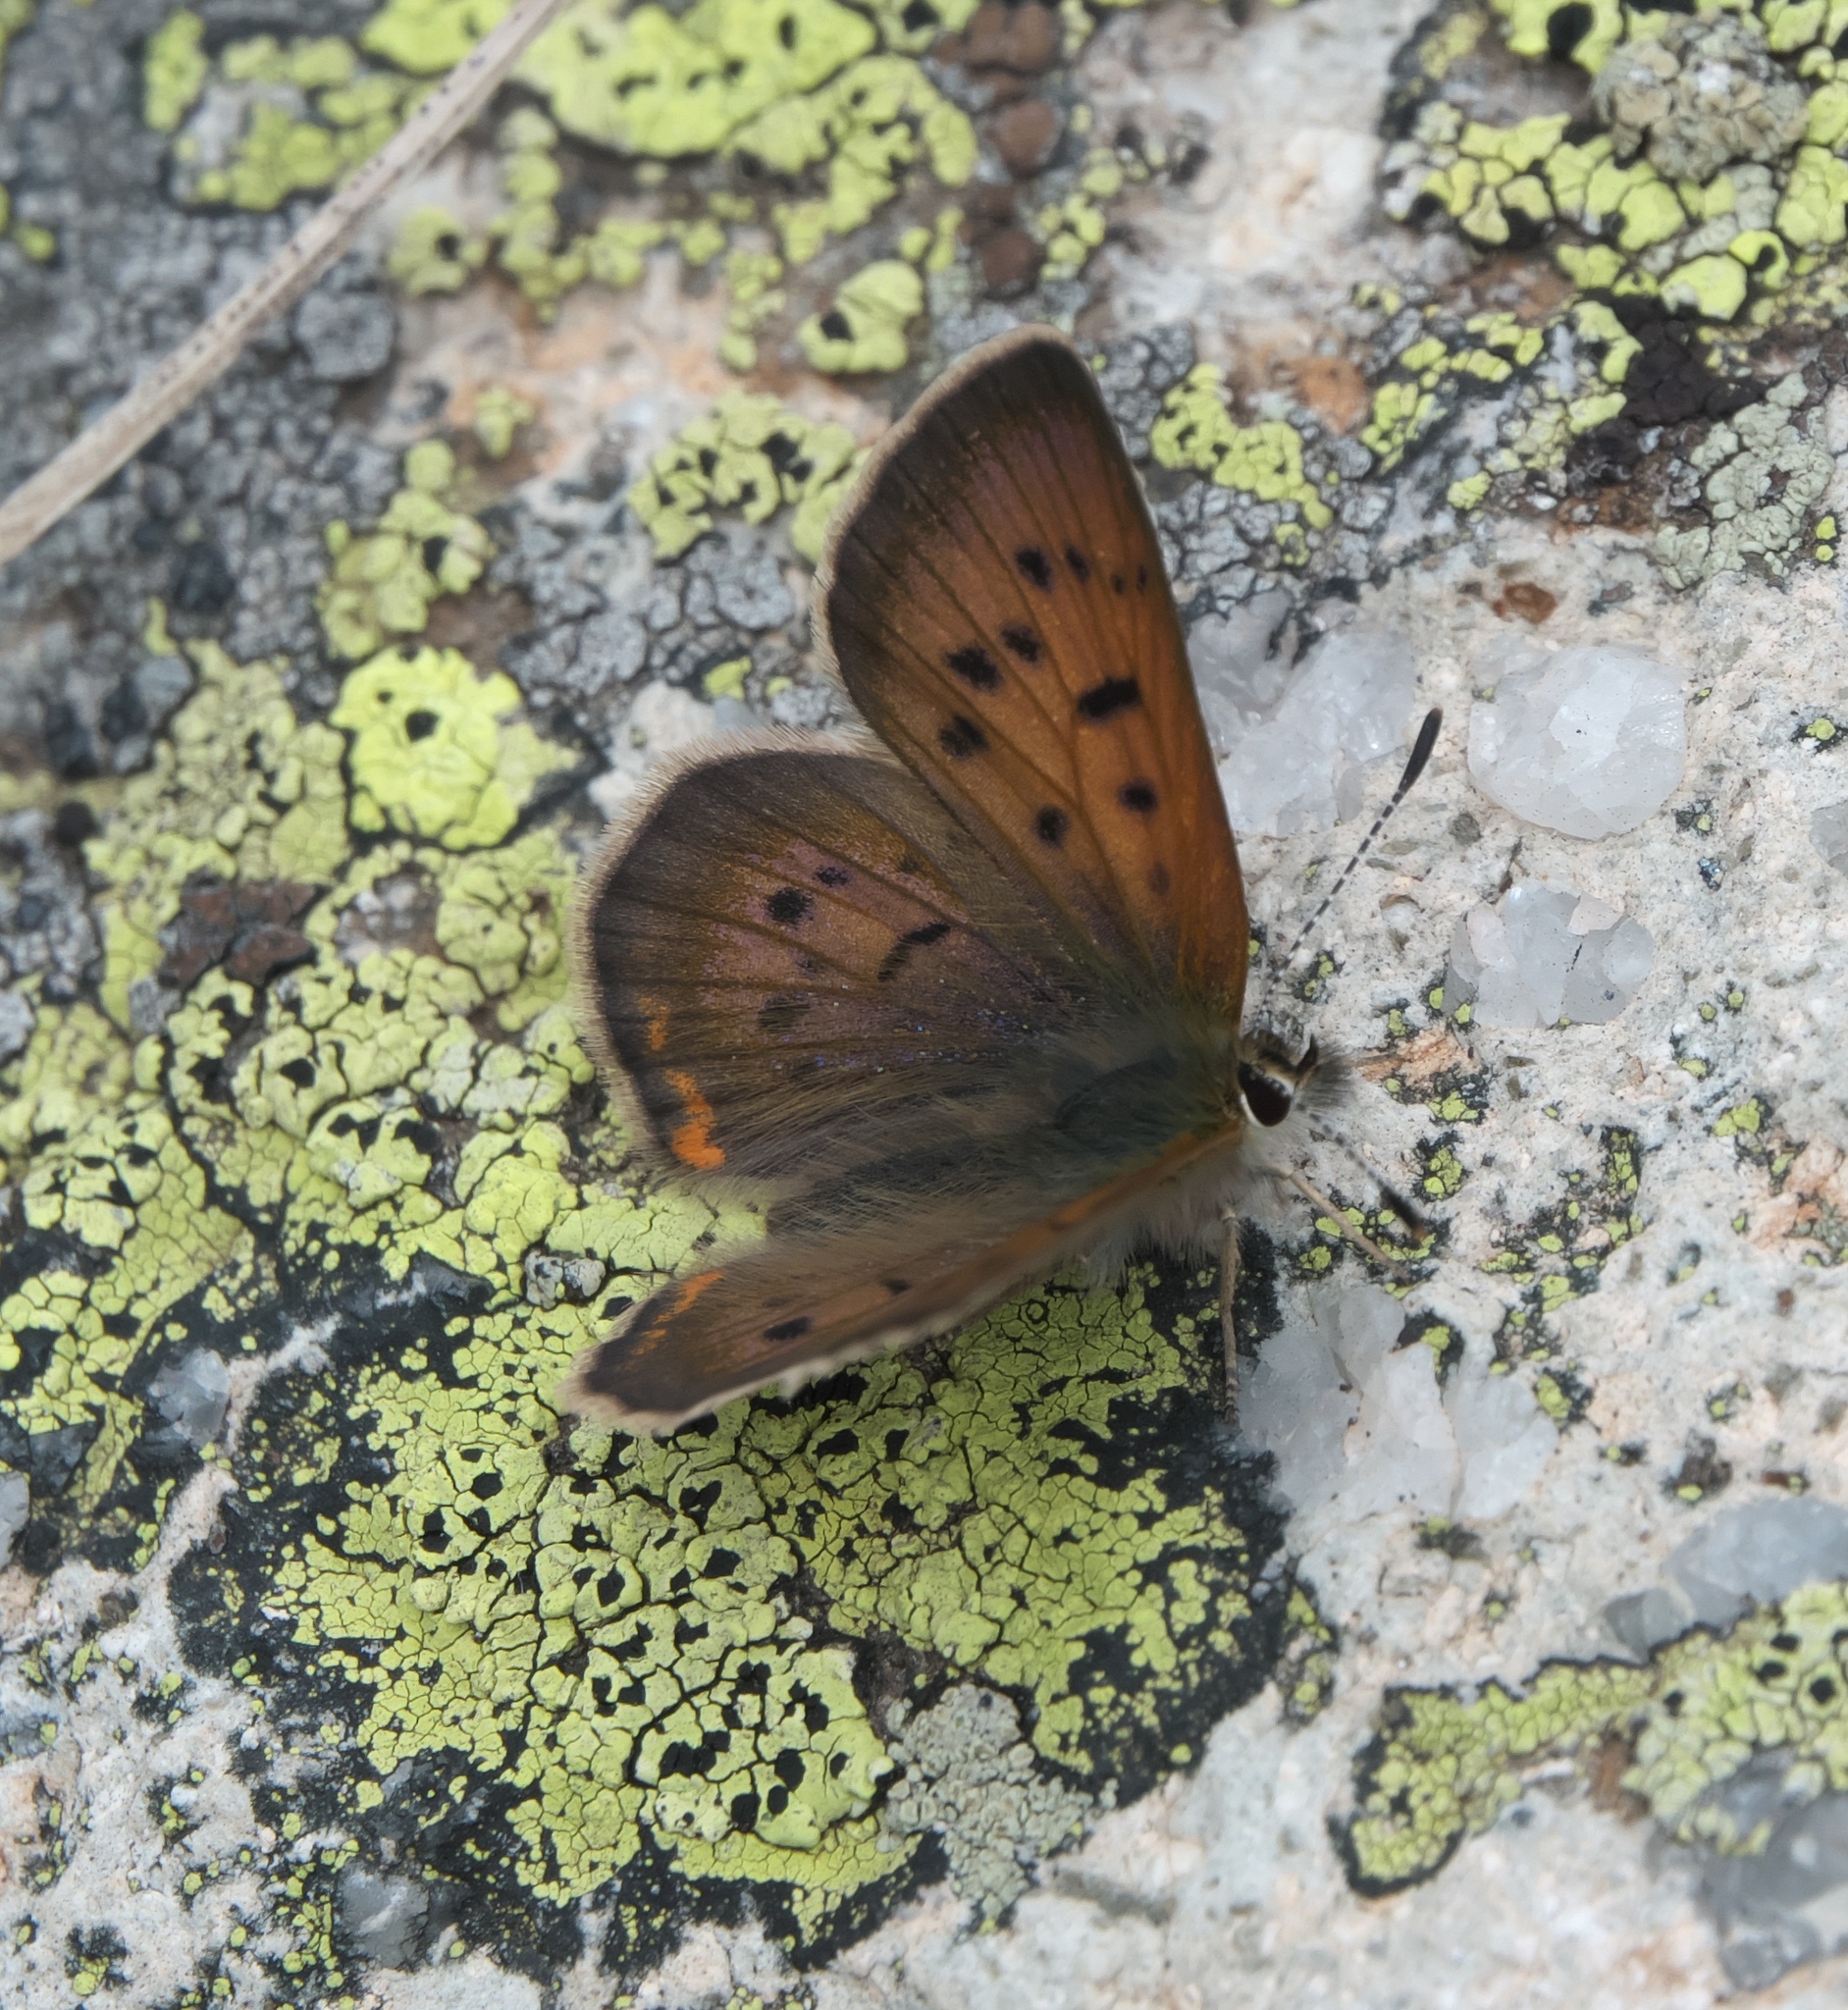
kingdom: Animalia
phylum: Arthropoda
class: Insecta
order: Lepidoptera
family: Lycaenidae
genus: Tharsalea
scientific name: Tharsalea dorcas
